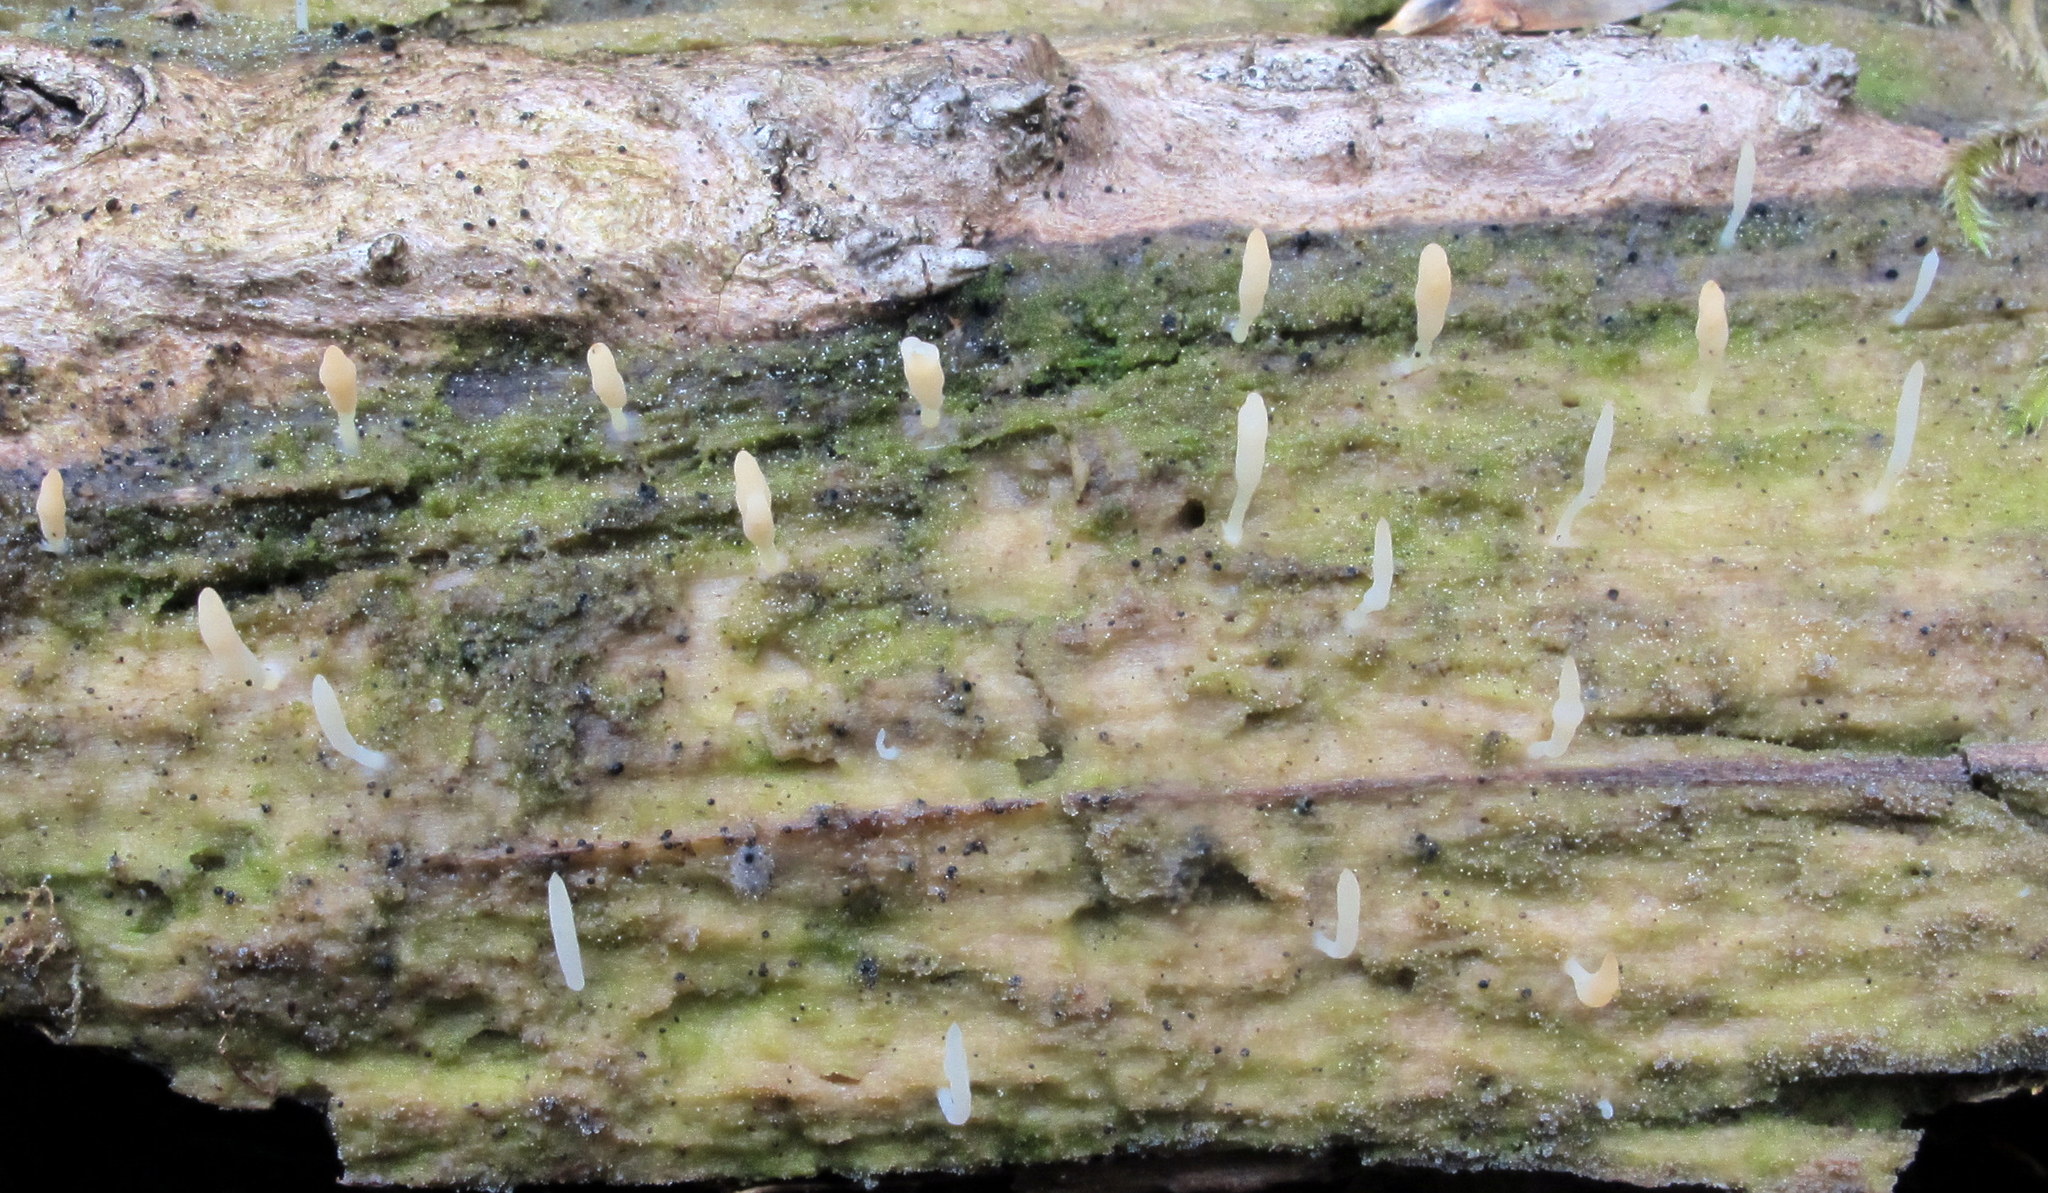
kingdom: Fungi
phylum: Basidiomycota
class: Agaricomycetes
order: Cantharellales
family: Hydnaceae
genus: Multiclavula
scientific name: Multiclavula mucida
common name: White green-algae coral
